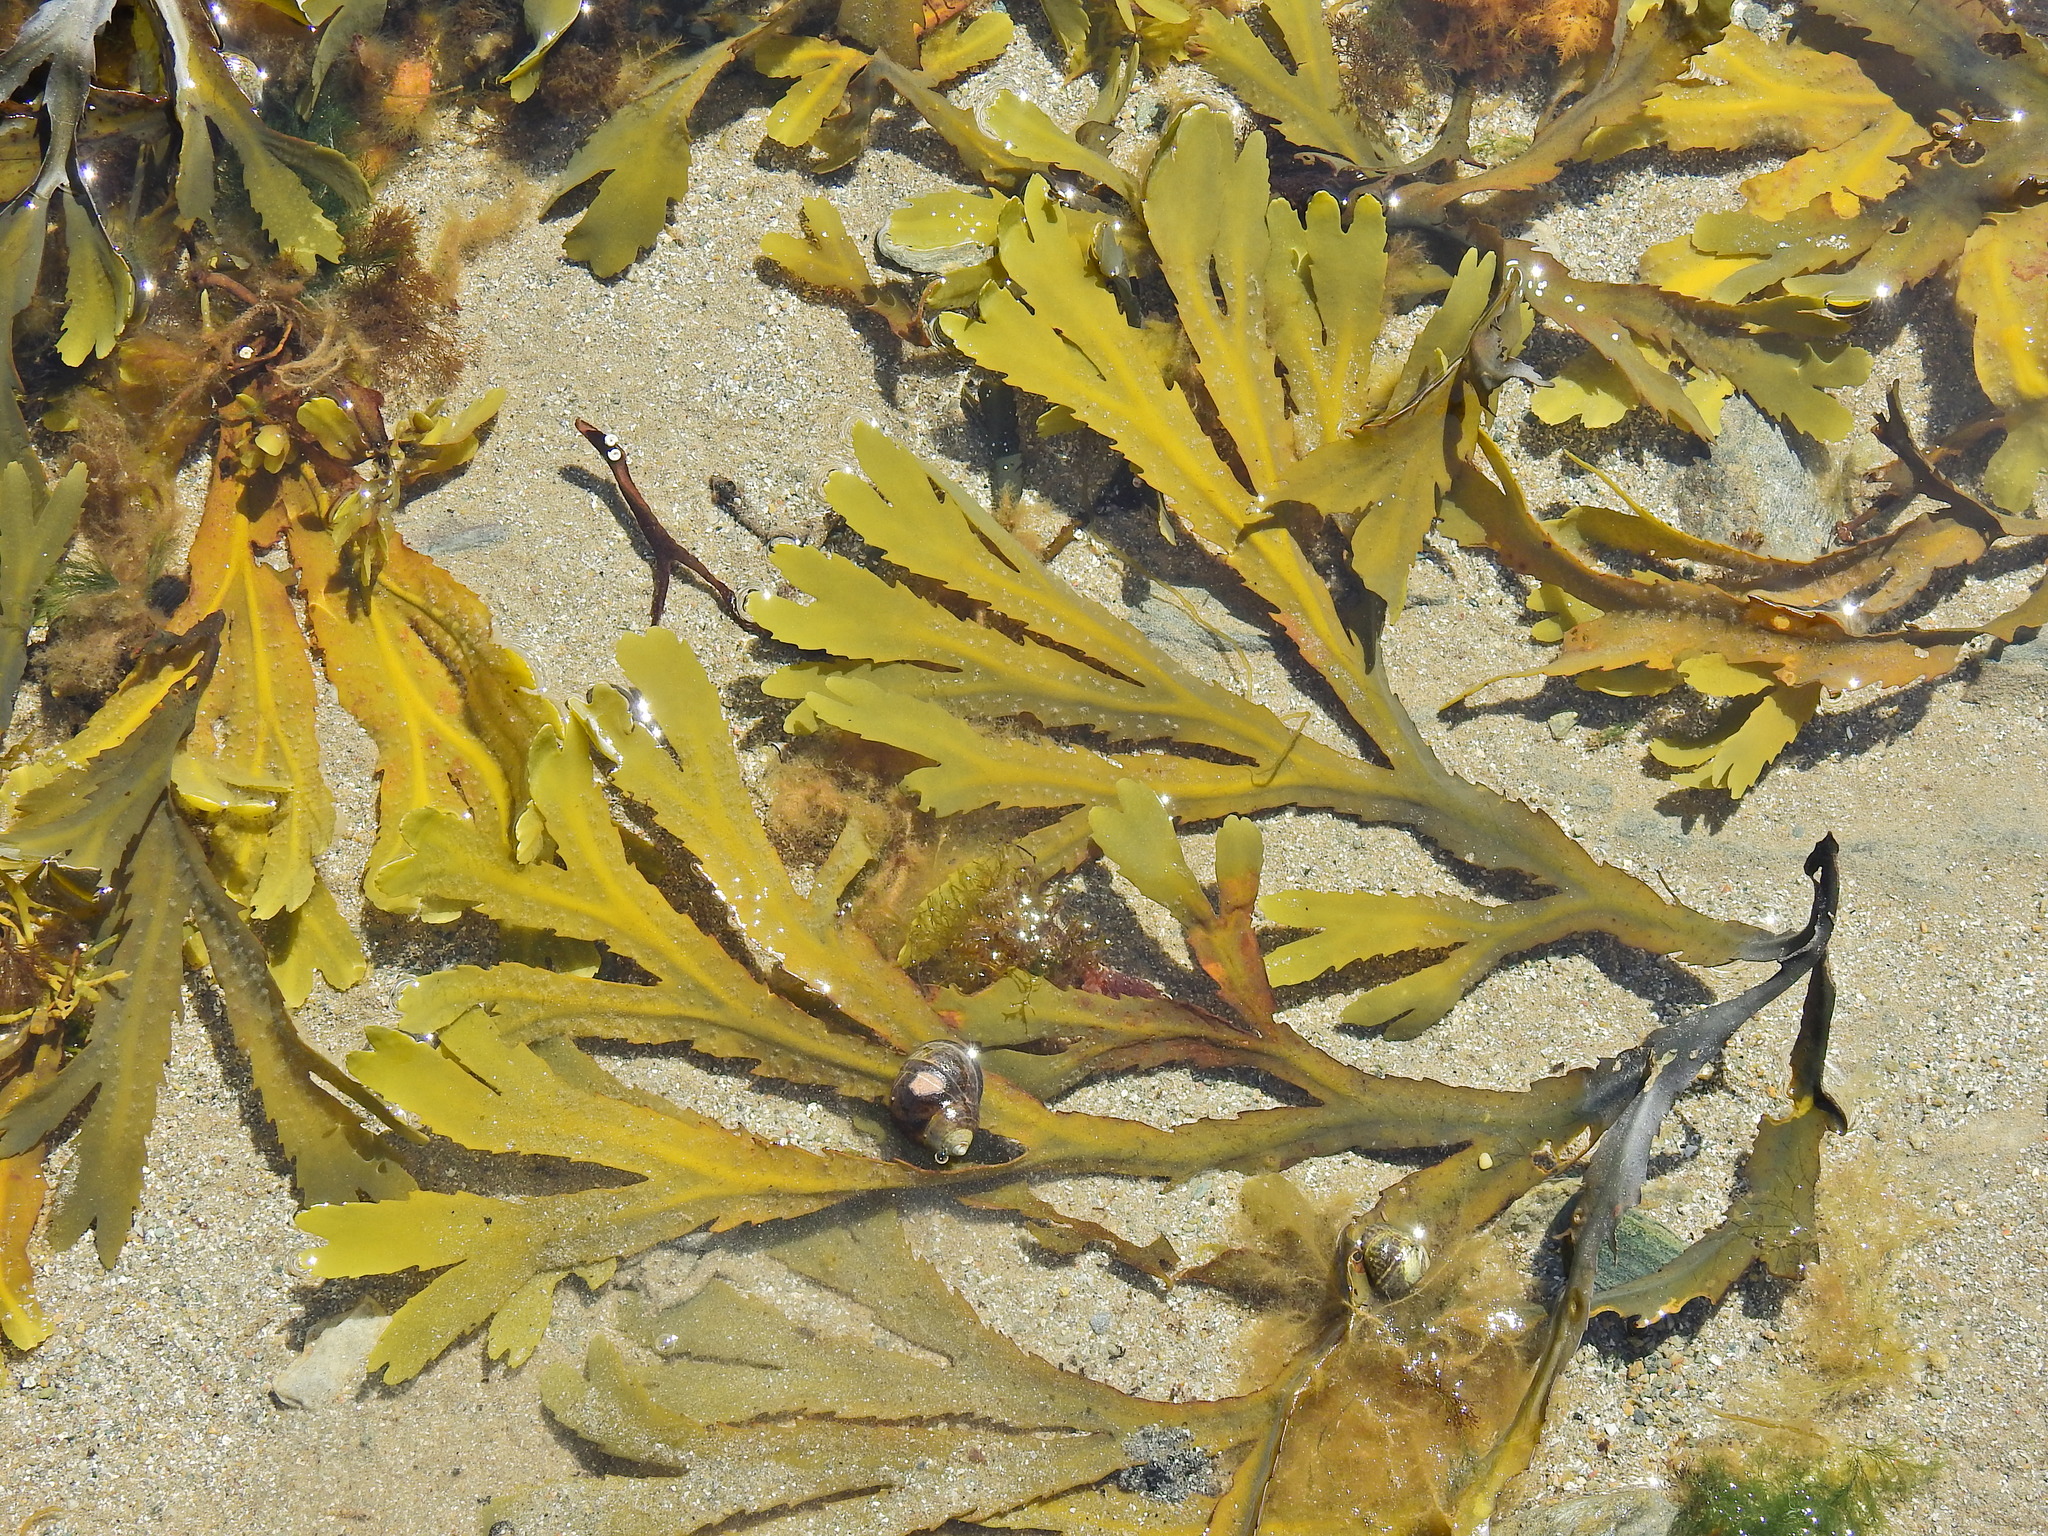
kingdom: Chromista
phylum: Ochrophyta
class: Phaeophyceae
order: Fucales
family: Fucaceae
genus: Fucus
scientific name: Fucus serratus
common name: Toothed wrack
